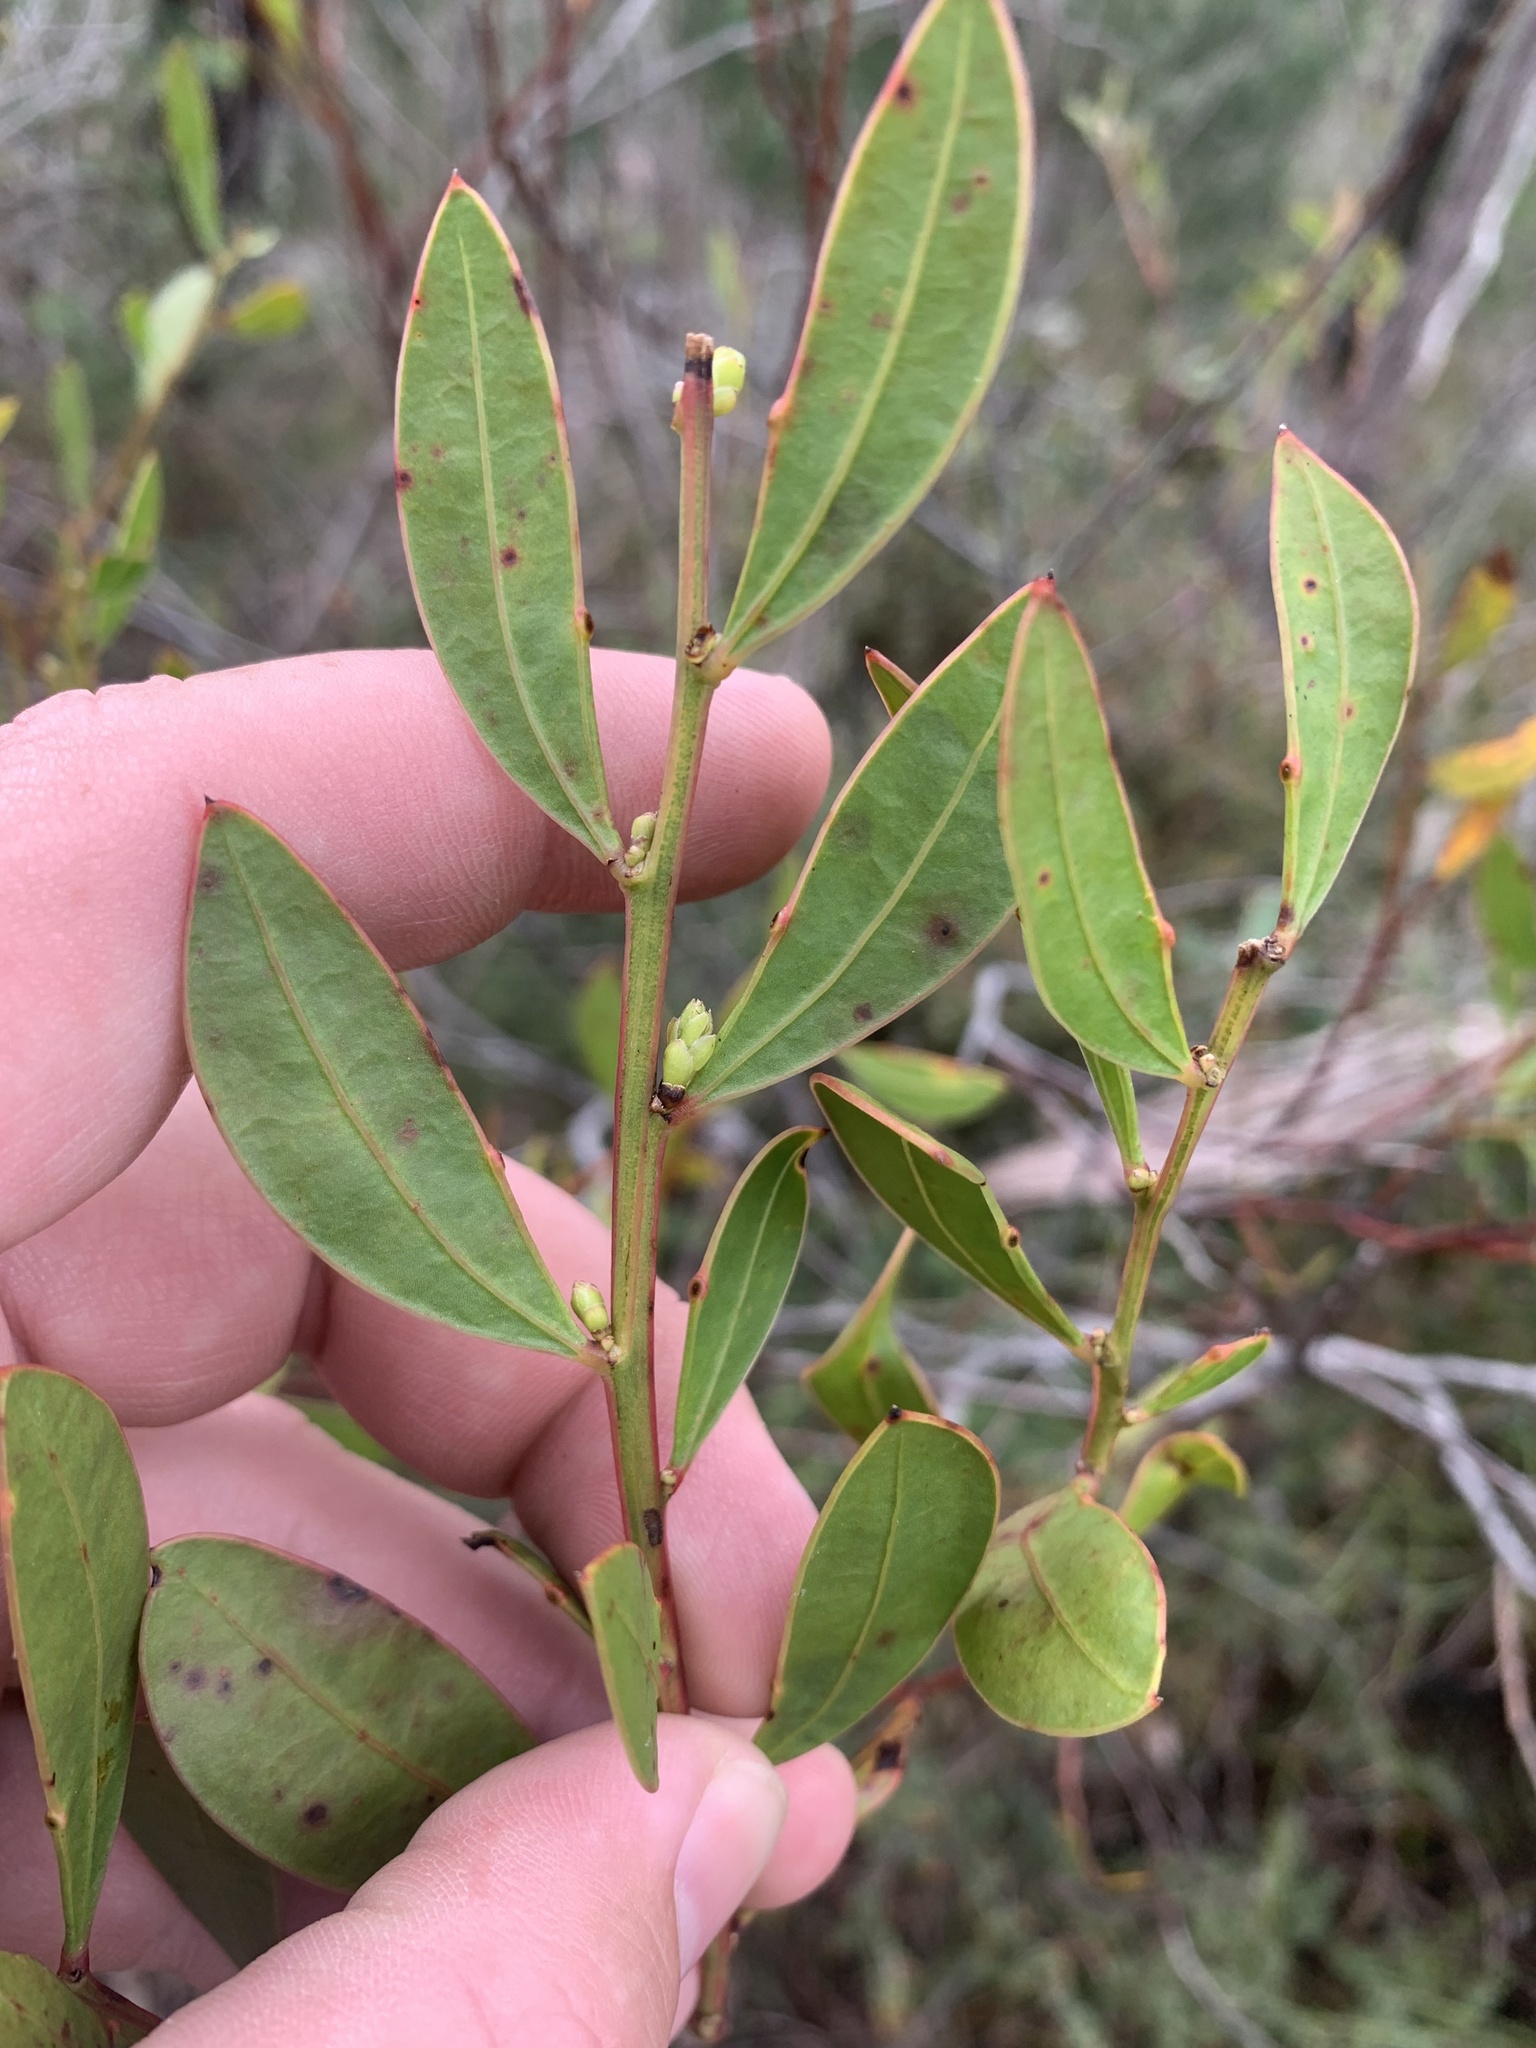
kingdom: Plantae
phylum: Tracheophyta
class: Magnoliopsida
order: Fabales
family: Fabaceae
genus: Acacia
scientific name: Acacia myrtifolia
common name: Myrtle wattle
